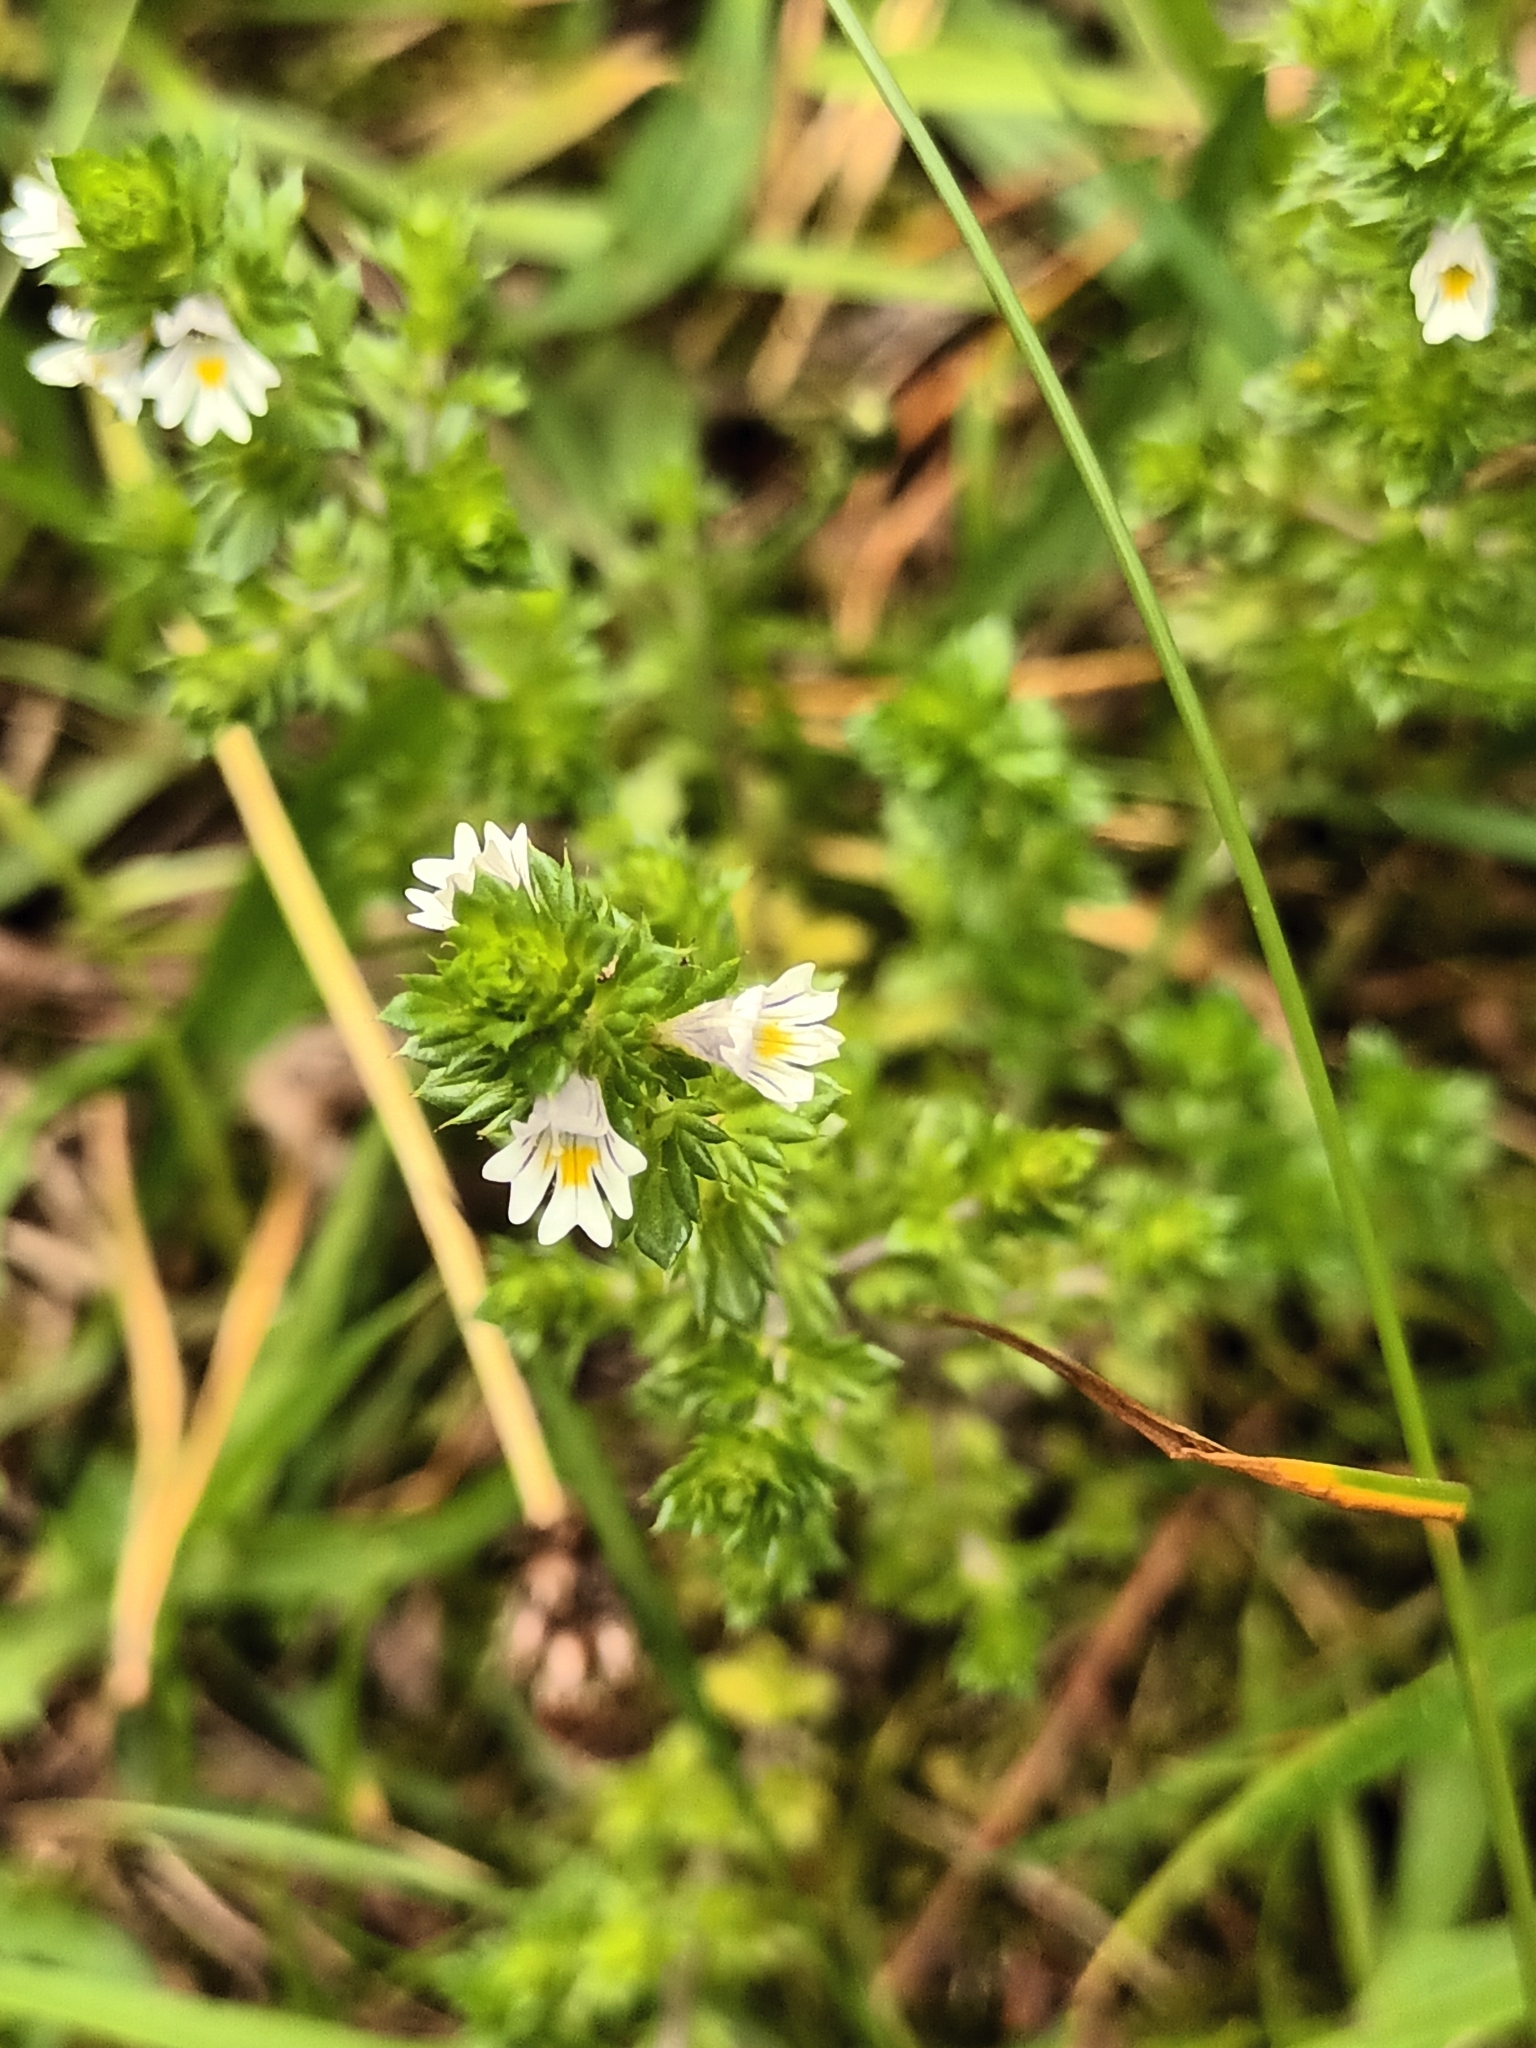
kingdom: Plantae
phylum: Tracheophyta
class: Magnoliopsida
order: Lamiales
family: Orobanchaceae
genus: Euphrasia
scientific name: Euphrasia nemorosa
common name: Common eyebright
